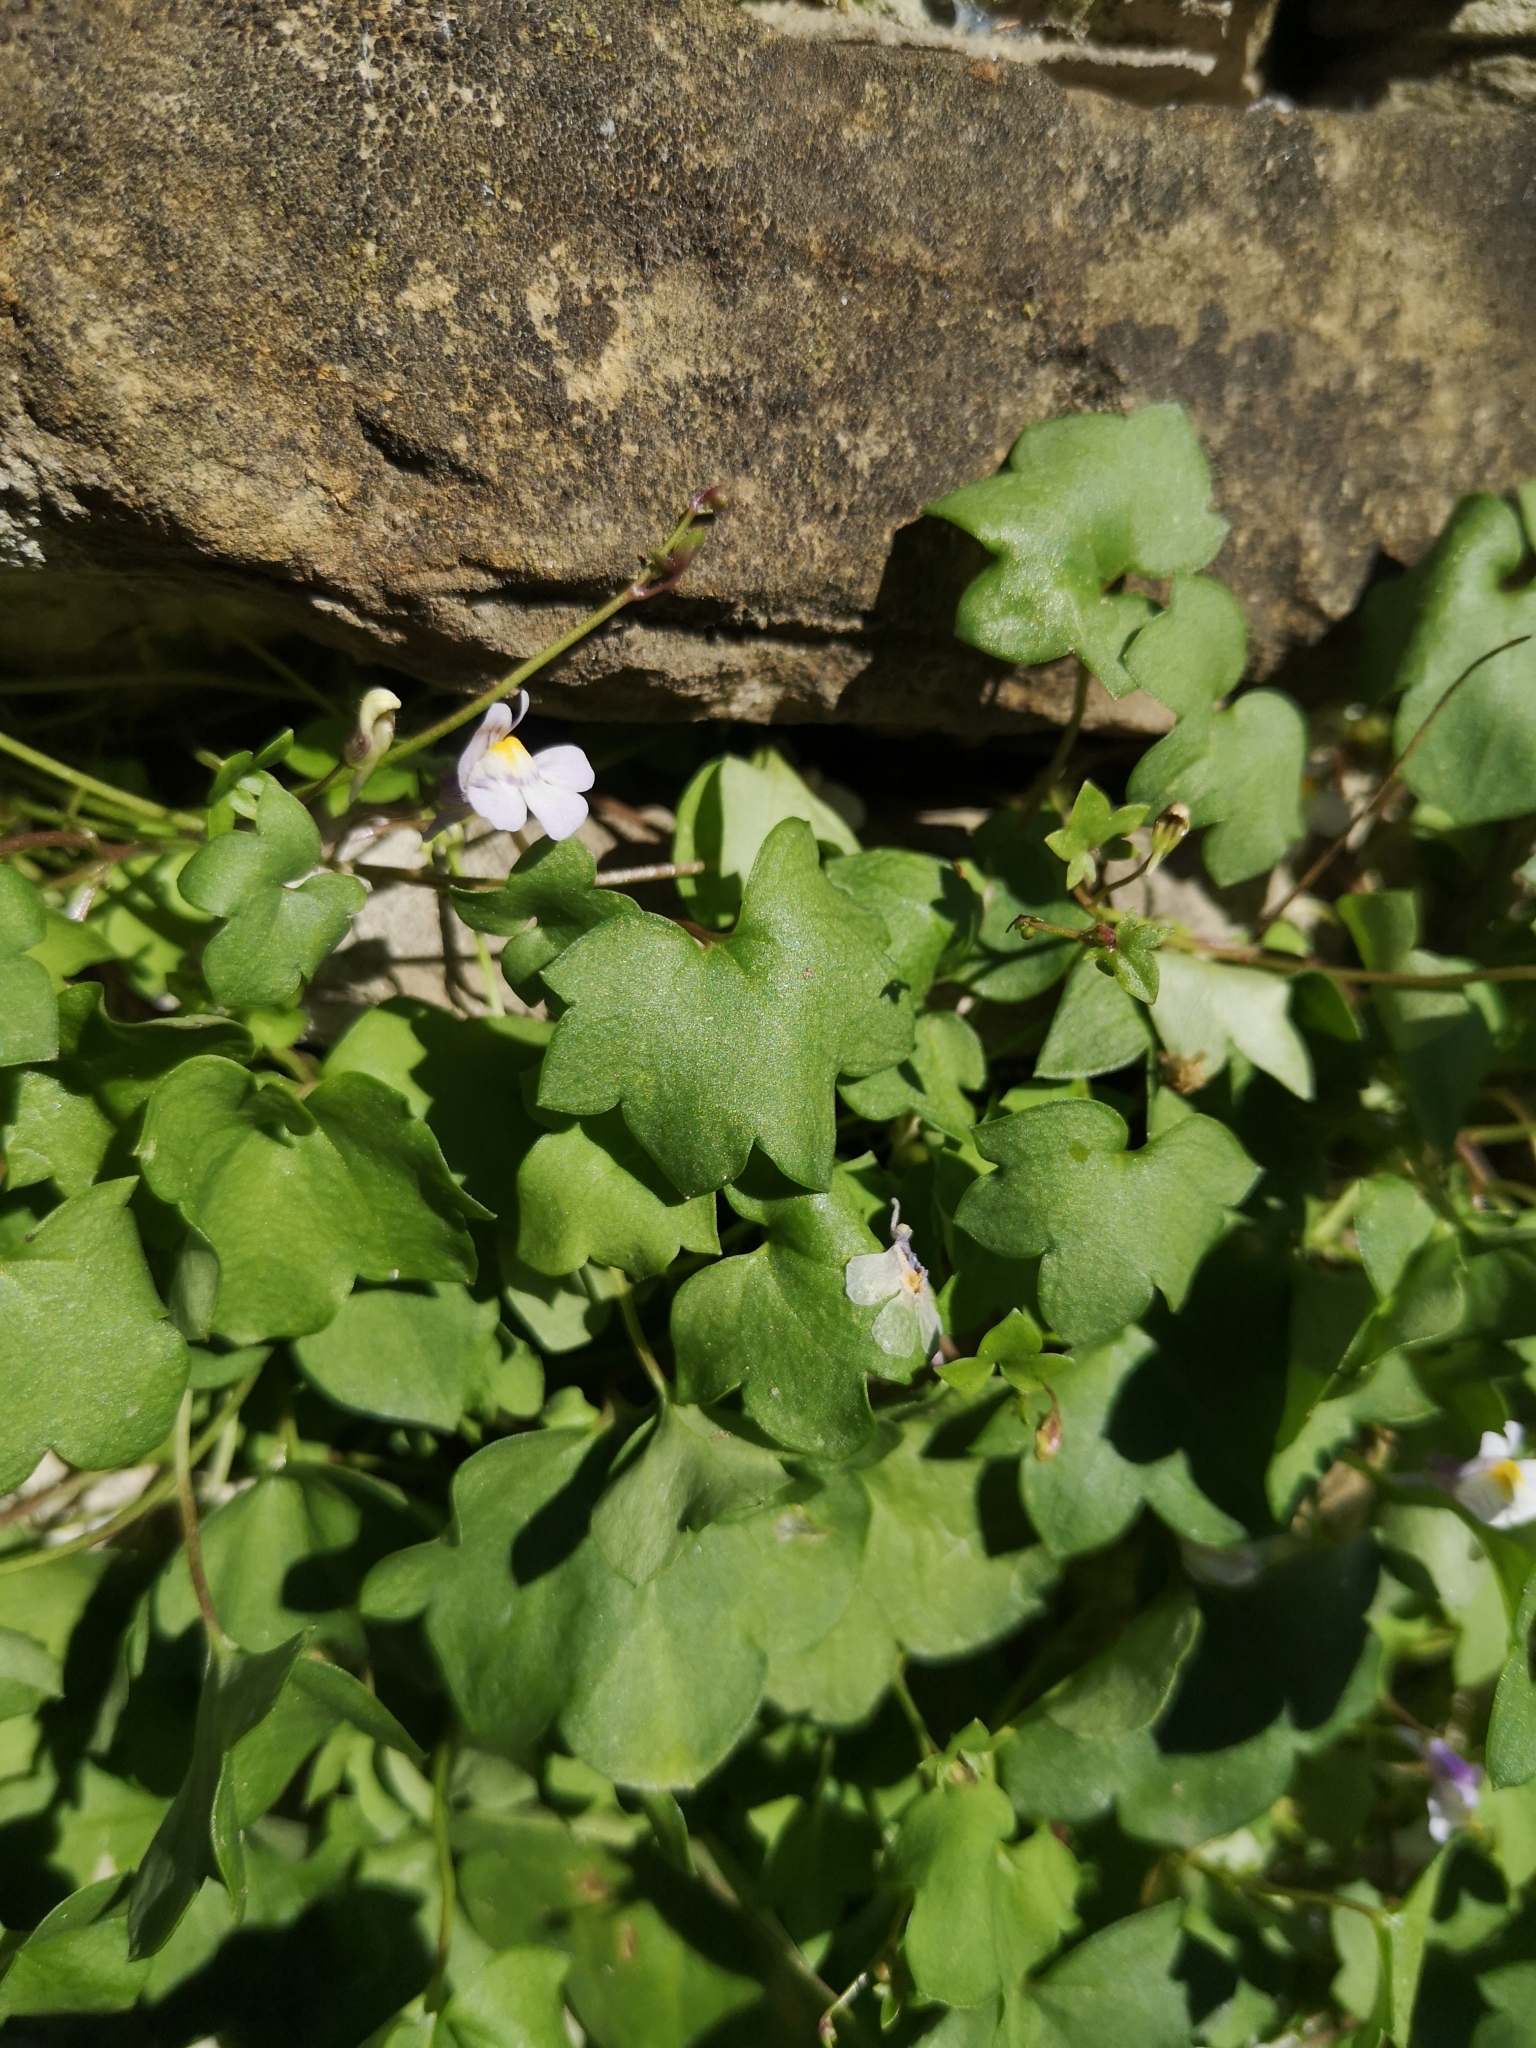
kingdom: Plantae
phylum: Tracheophyta
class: Magnoliopsida
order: Lamiales
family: Plantaginaceae
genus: Cymbalaria
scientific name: Cymbalaria muralis
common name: Ivy-leaved toadflax
